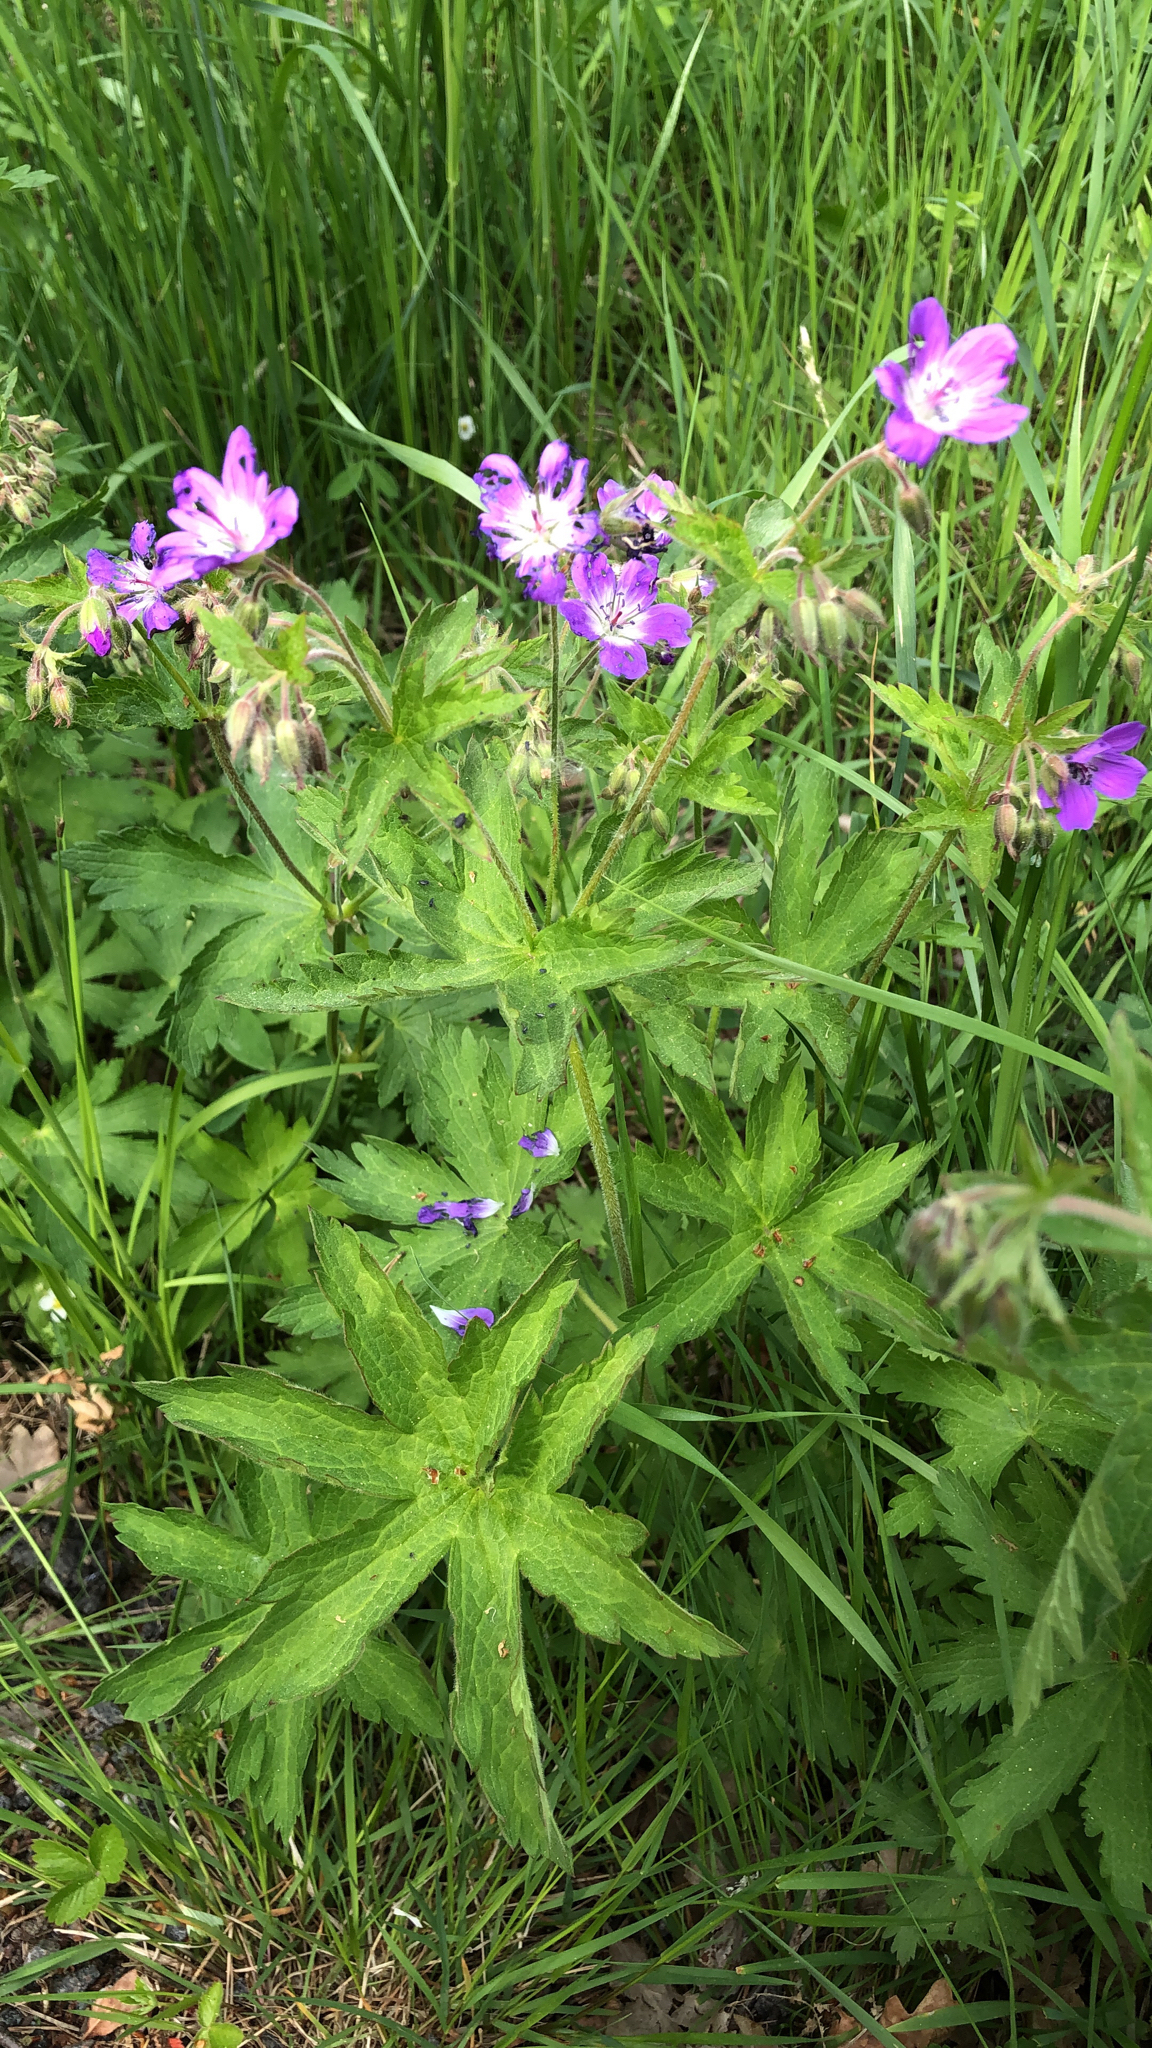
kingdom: Plantae
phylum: Tracheophyta
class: Magnoliopsida
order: Geraniales
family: Geraniaceae
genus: Geranium
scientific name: Geranium sylvaticum
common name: Wood crane's-bill
